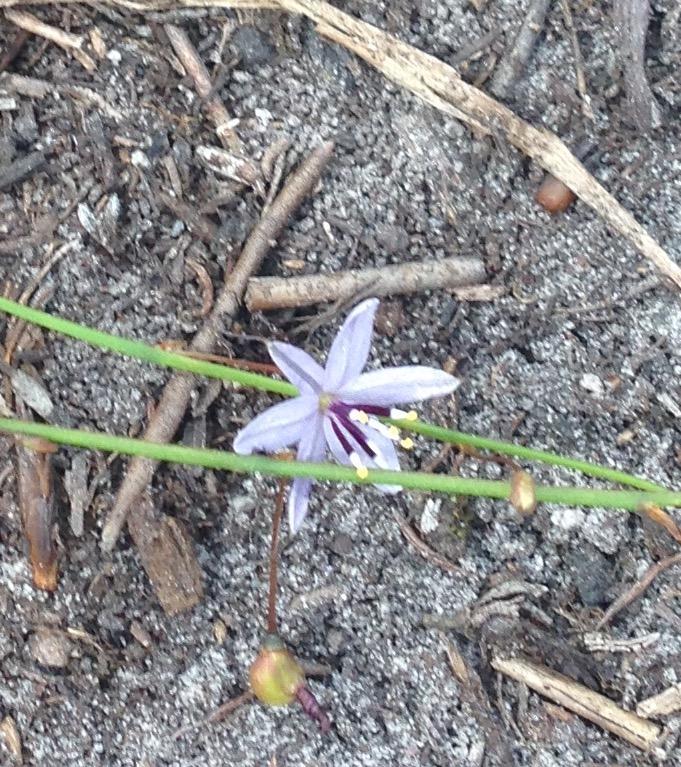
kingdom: Plantae
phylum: Tracheophyta
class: Liliopsida
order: Asparagales
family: Asphodelaceae
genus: Caesia
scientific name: Caesia contorta
